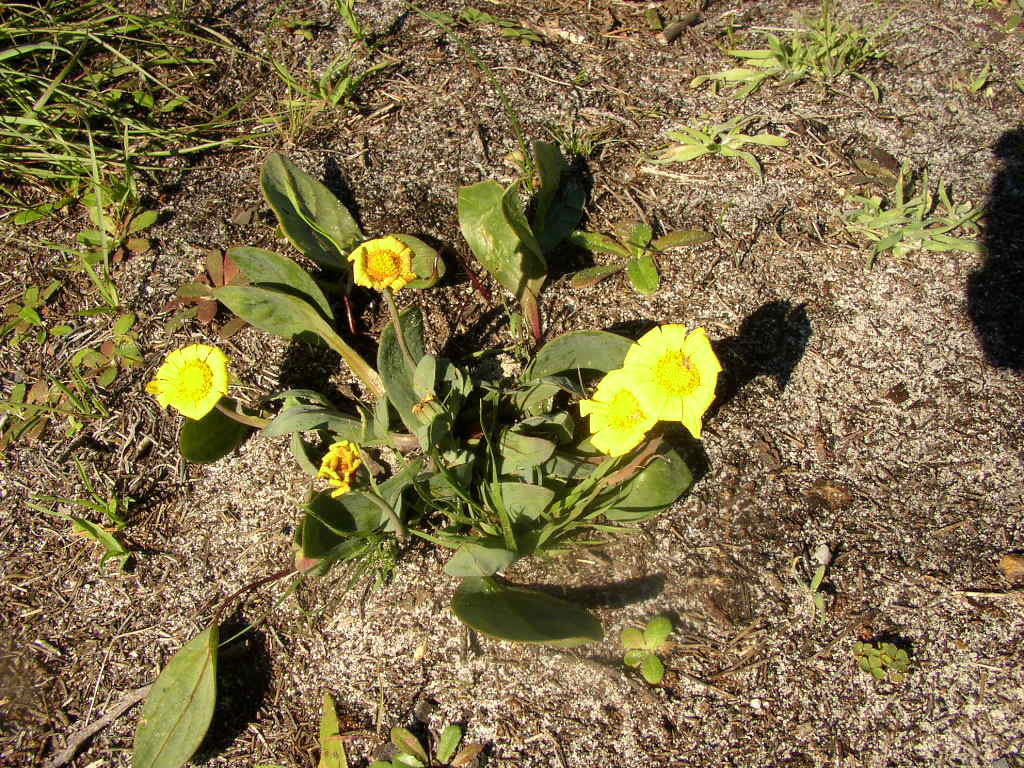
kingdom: Plantae
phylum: Tracheophyta
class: Magnoliopsida
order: Asterales
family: Asteraceae
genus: Othonna
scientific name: Othonna bulbosa
